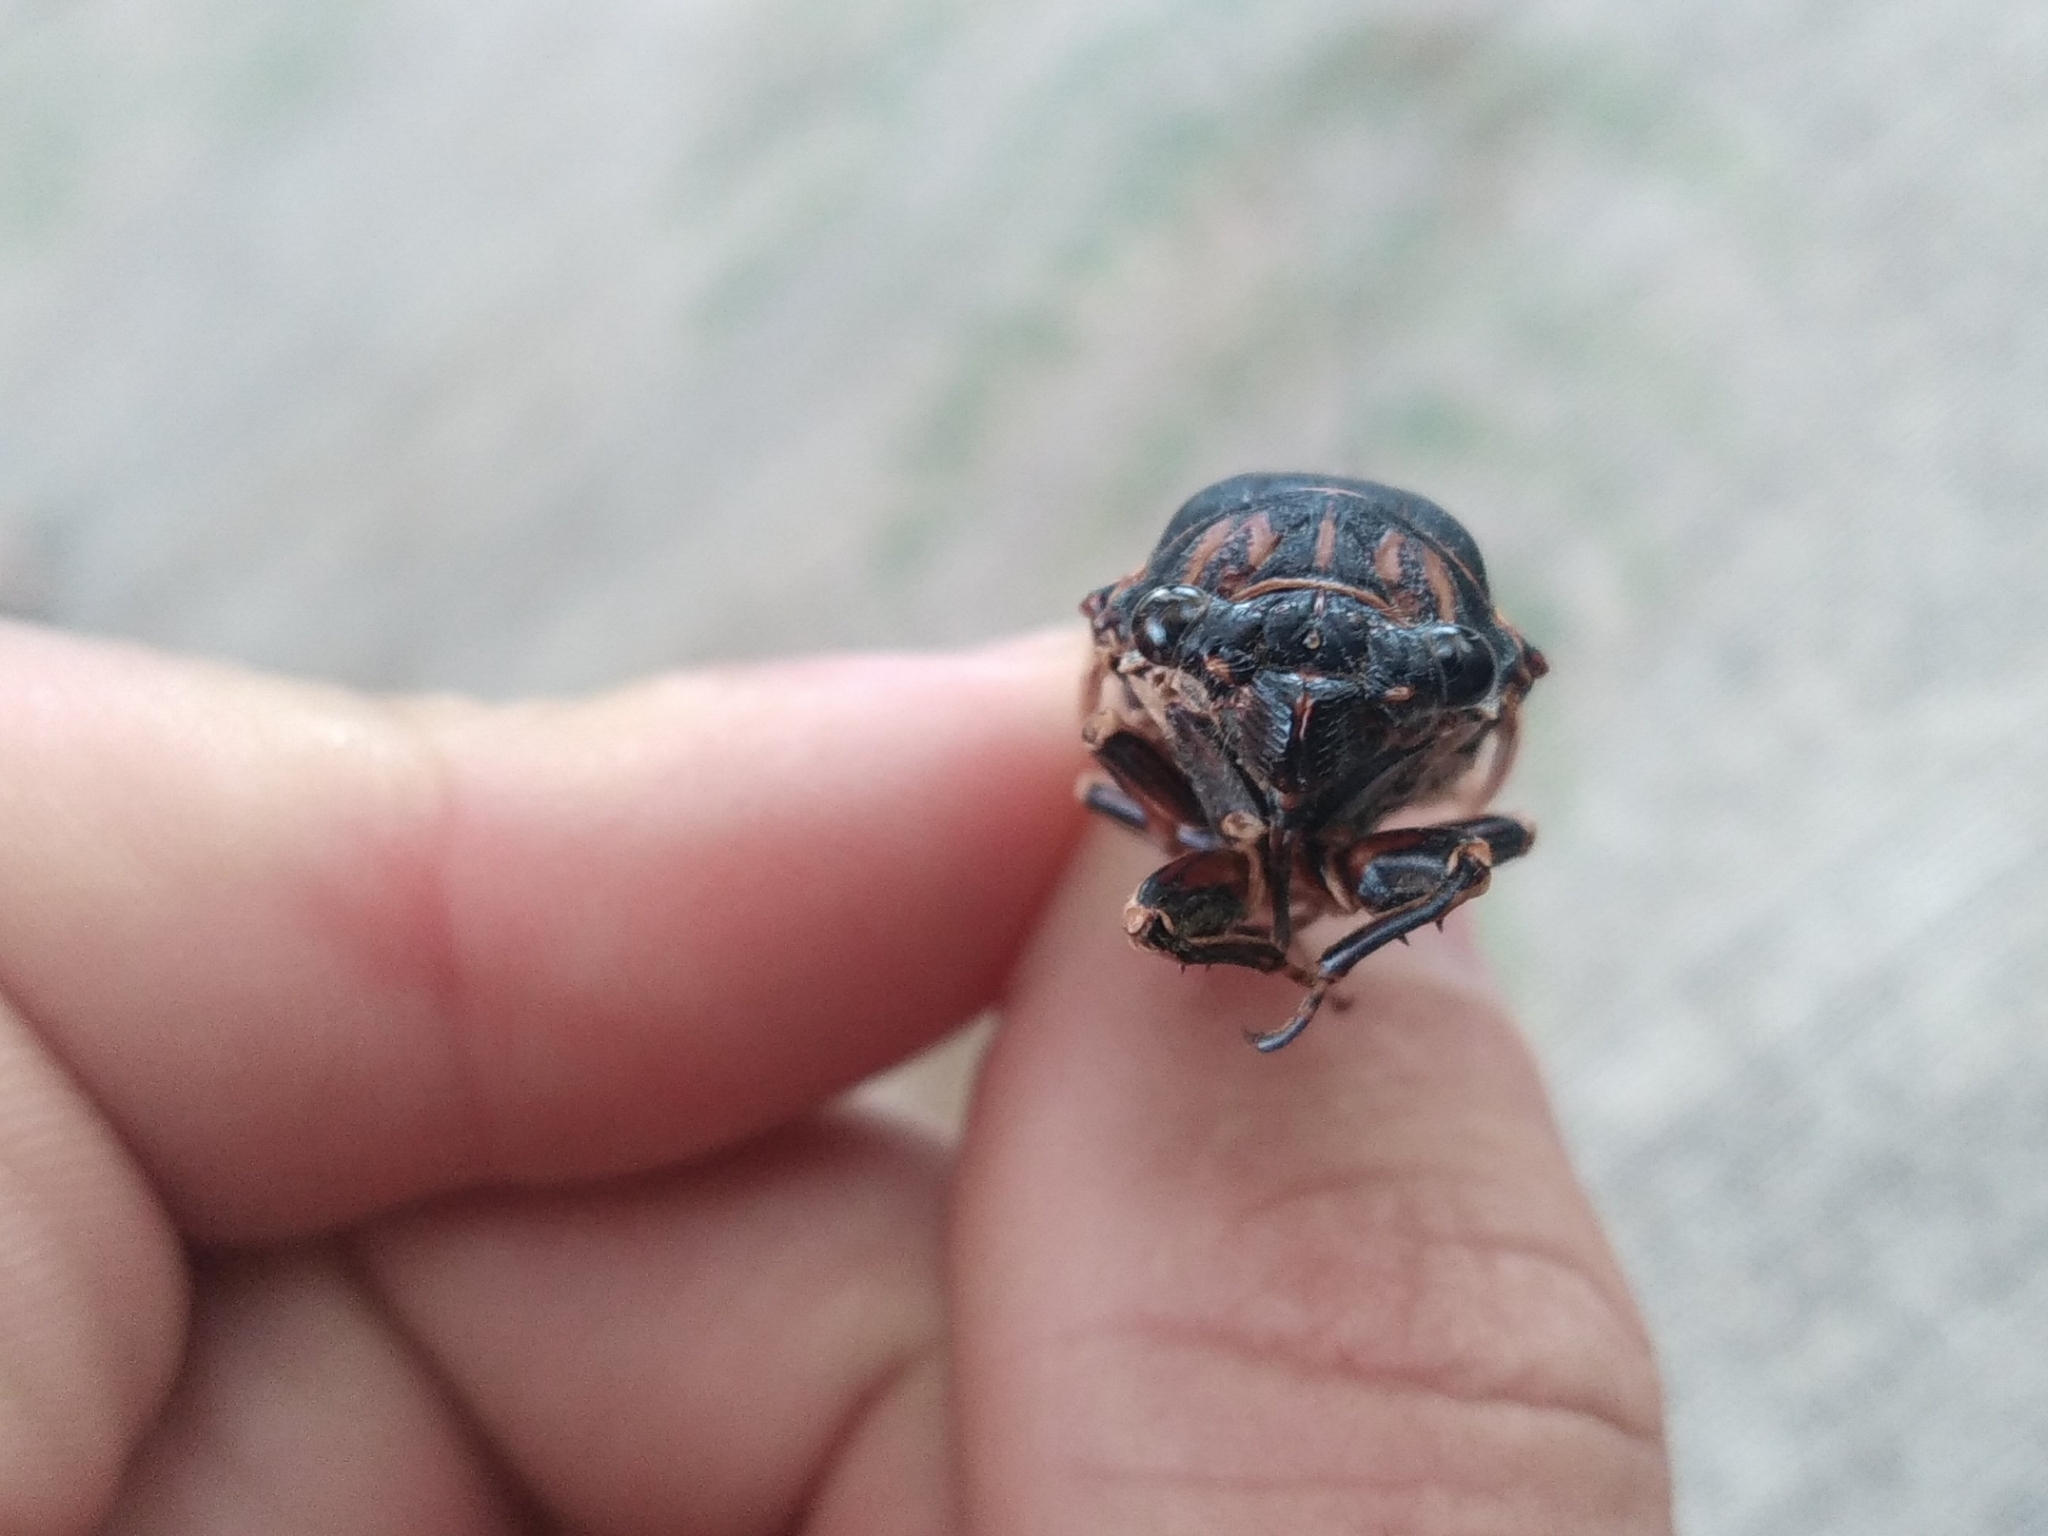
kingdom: Animalia
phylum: Arthropoda
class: Insecta
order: Hemiptera
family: Cicadidae
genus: Tibicina
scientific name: Tibicina haematodes
